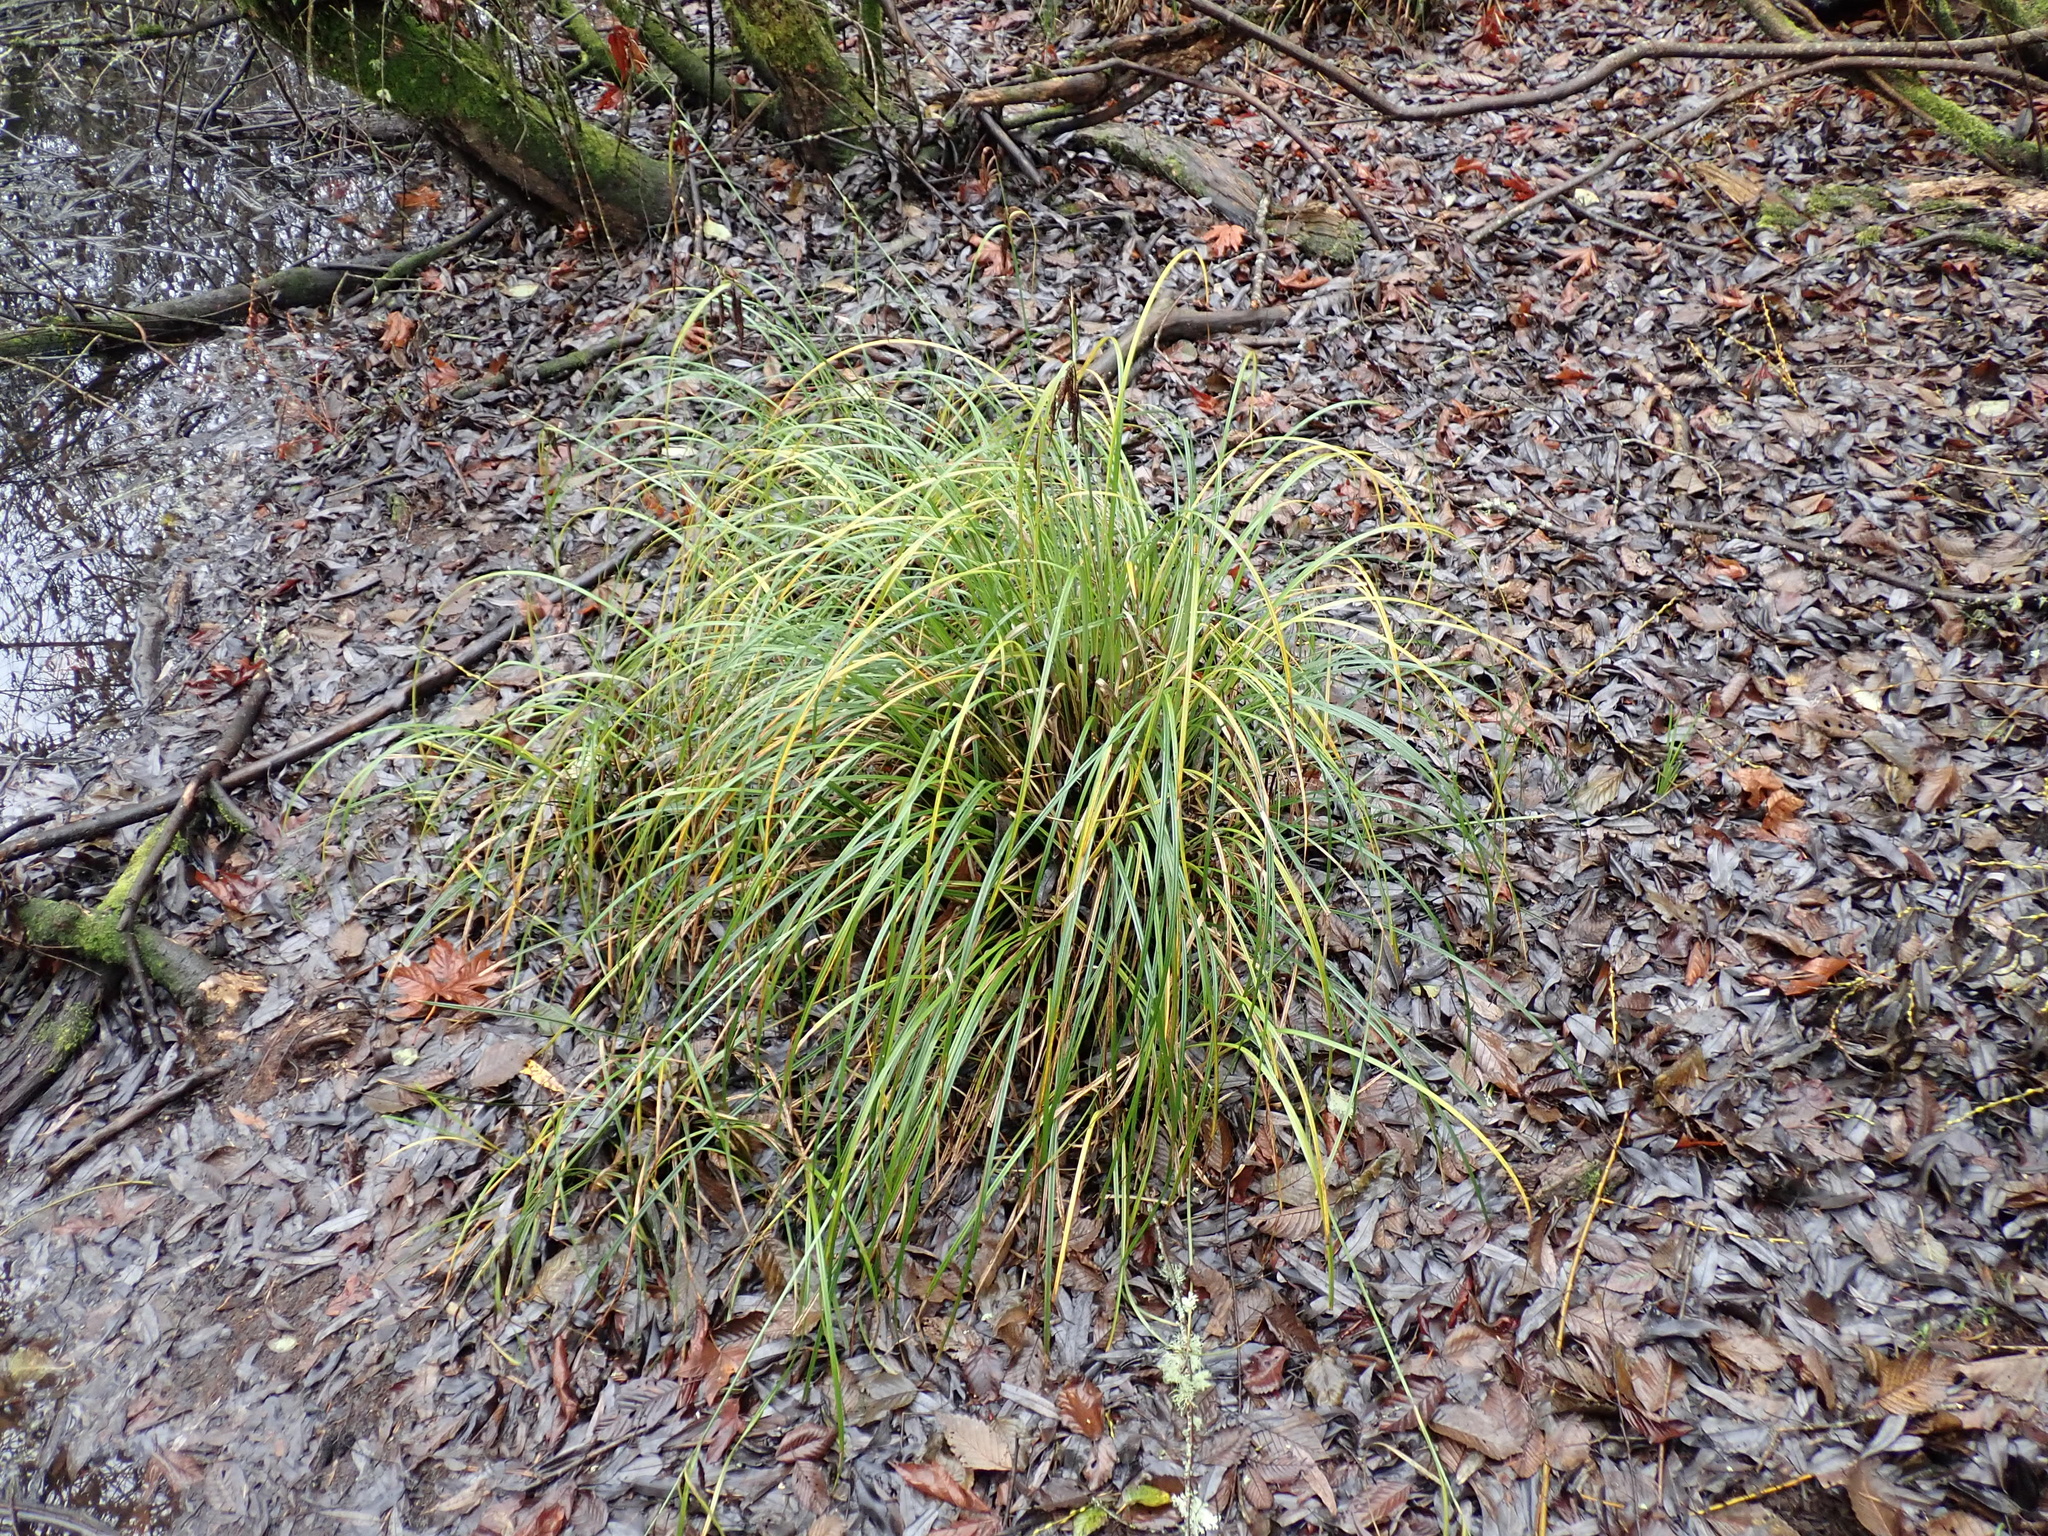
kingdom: Plantae
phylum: Tracheophyta
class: Liliopsida
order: Poales
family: Cyperaceae
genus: Carex
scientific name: Carex obnupta
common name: Slough sedge
